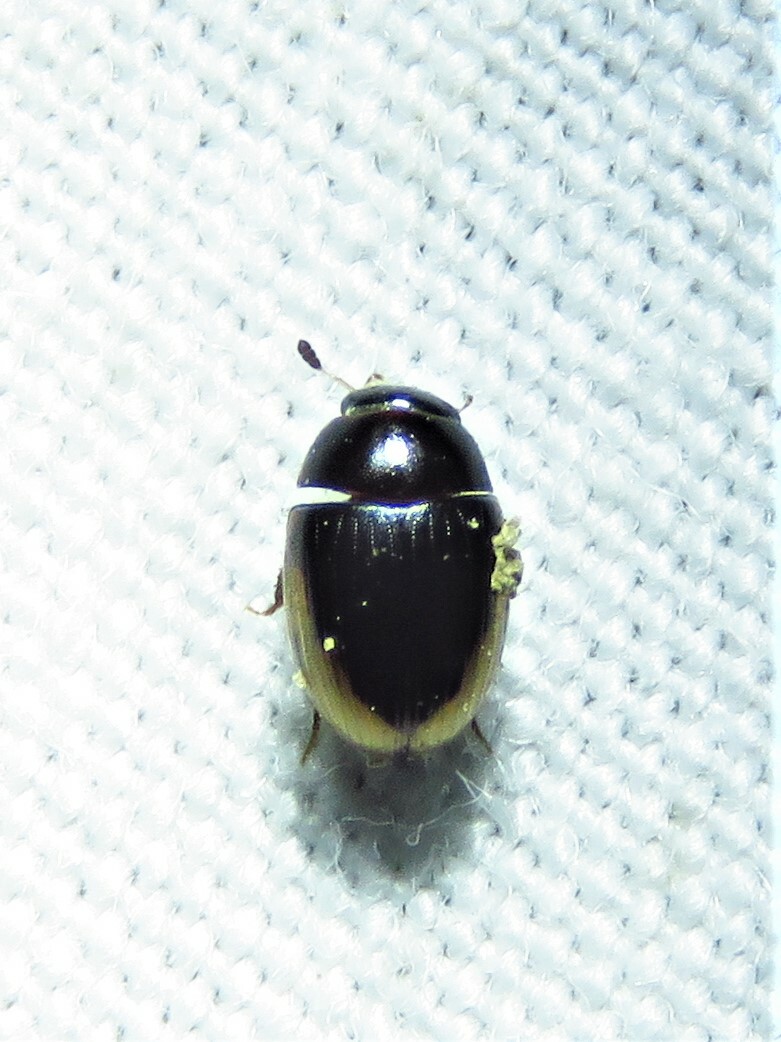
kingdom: Animalia
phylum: Arthropoda
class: Insecta
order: Coleoptera
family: Hydrophilidae
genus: Cercyon
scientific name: Cercyon praetextatus
